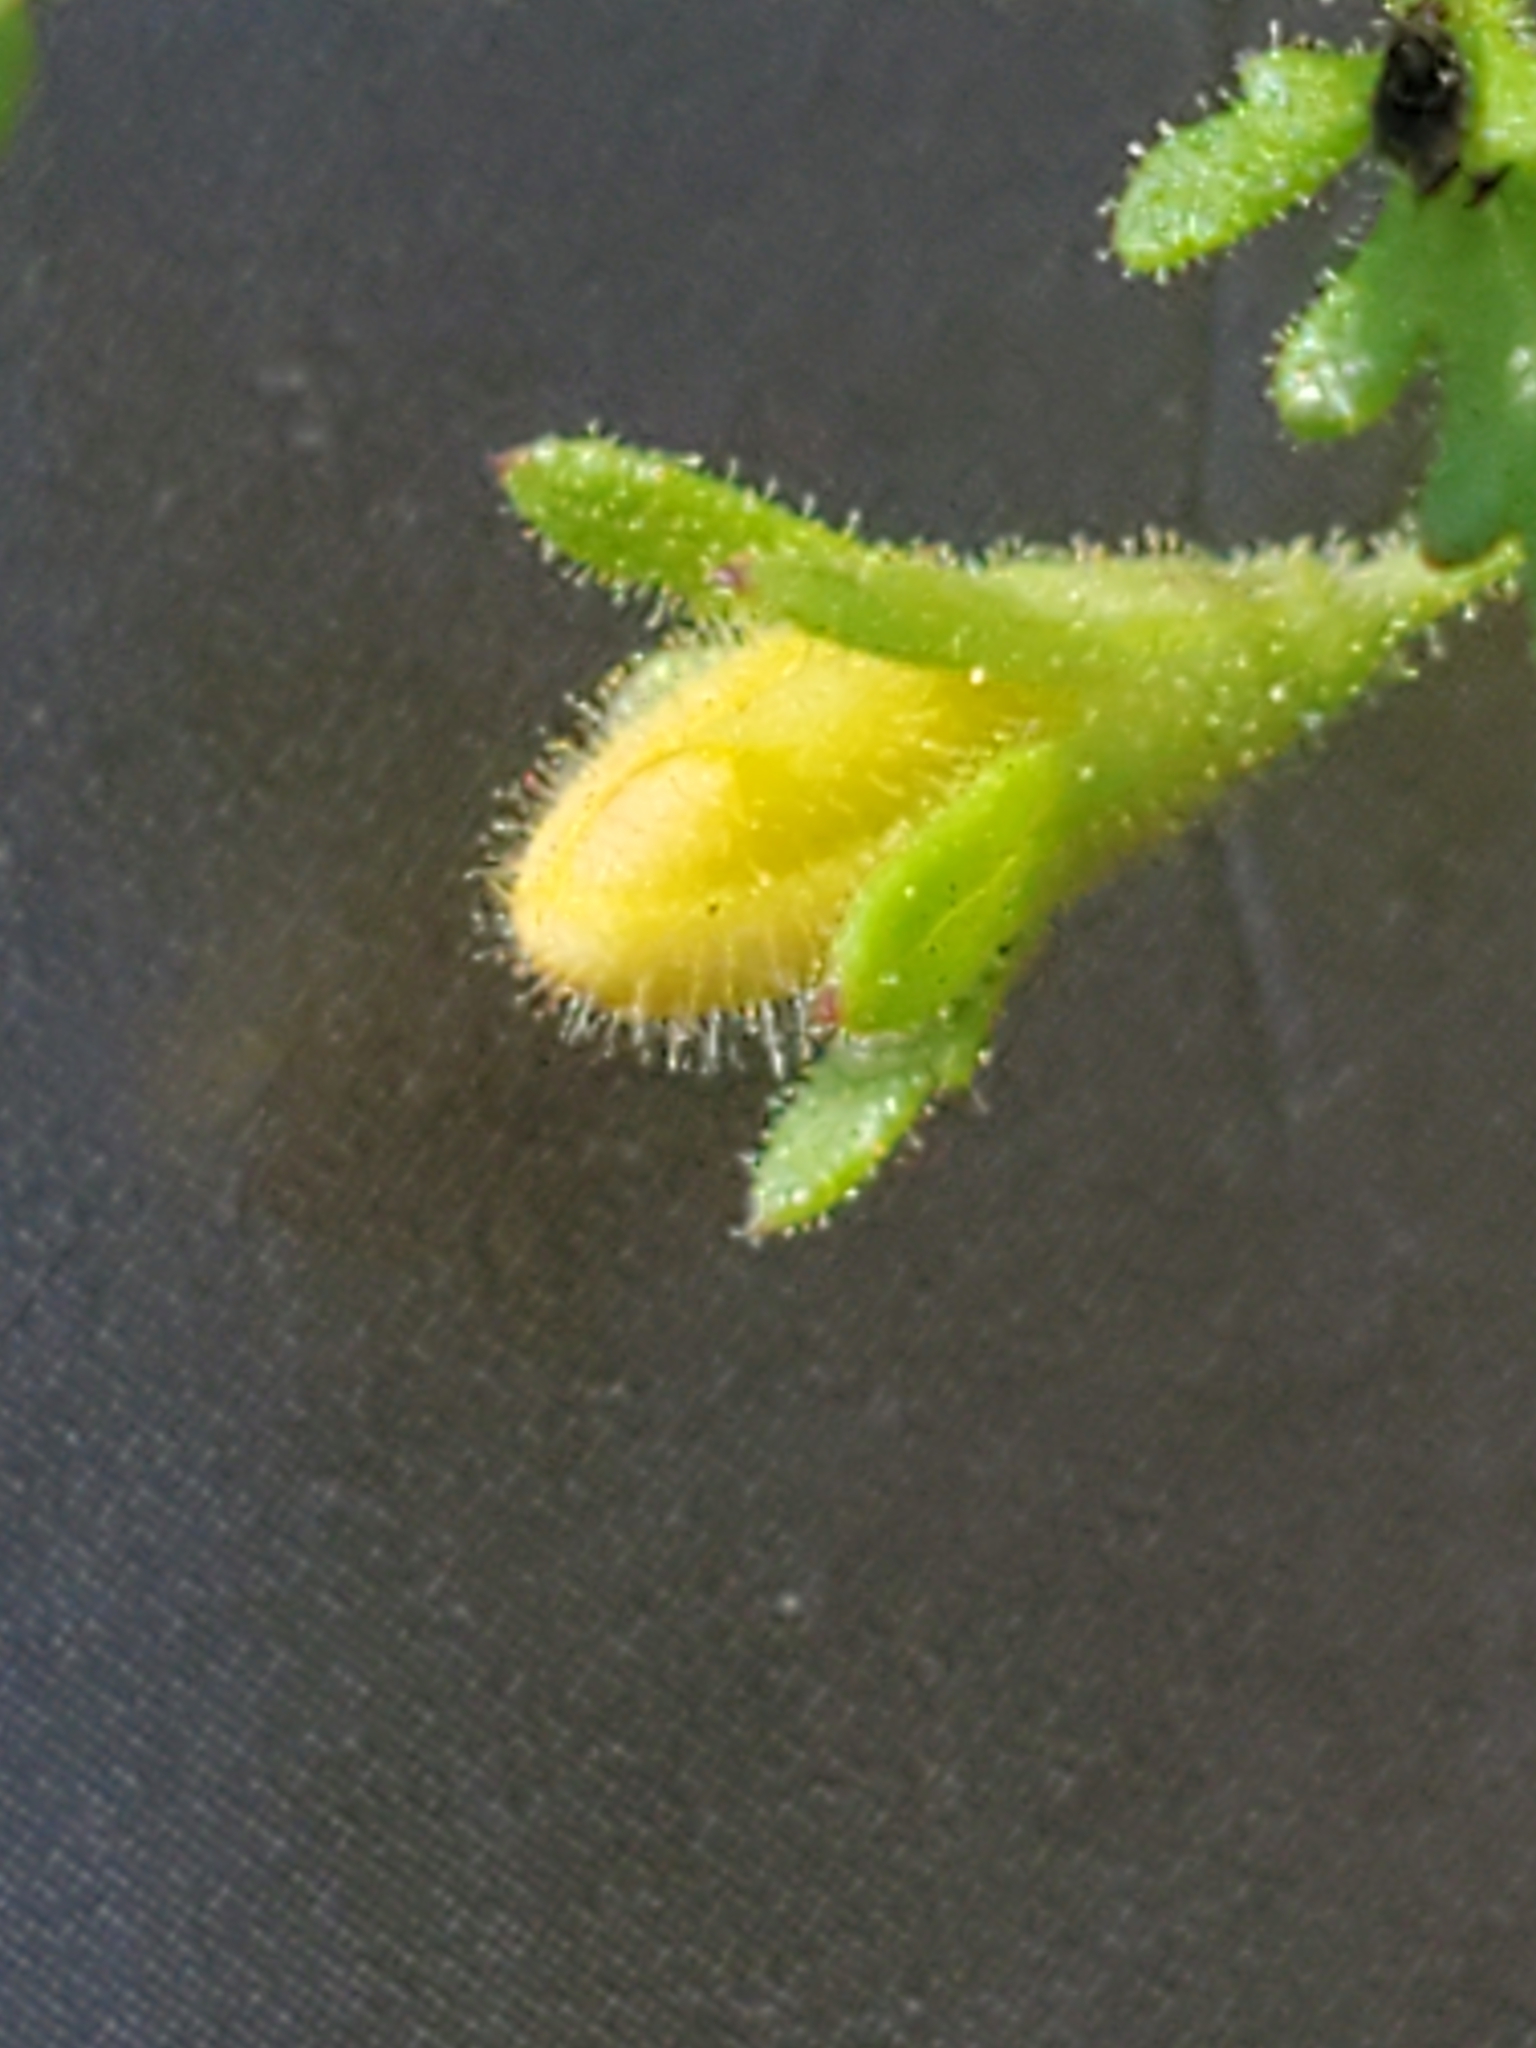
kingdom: Plantae
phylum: Tracheophyta
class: Magnoliopsida
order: Lamiales
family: Orobanchaceae
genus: Seymeria
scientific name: Seymeria bipinnatisecta
